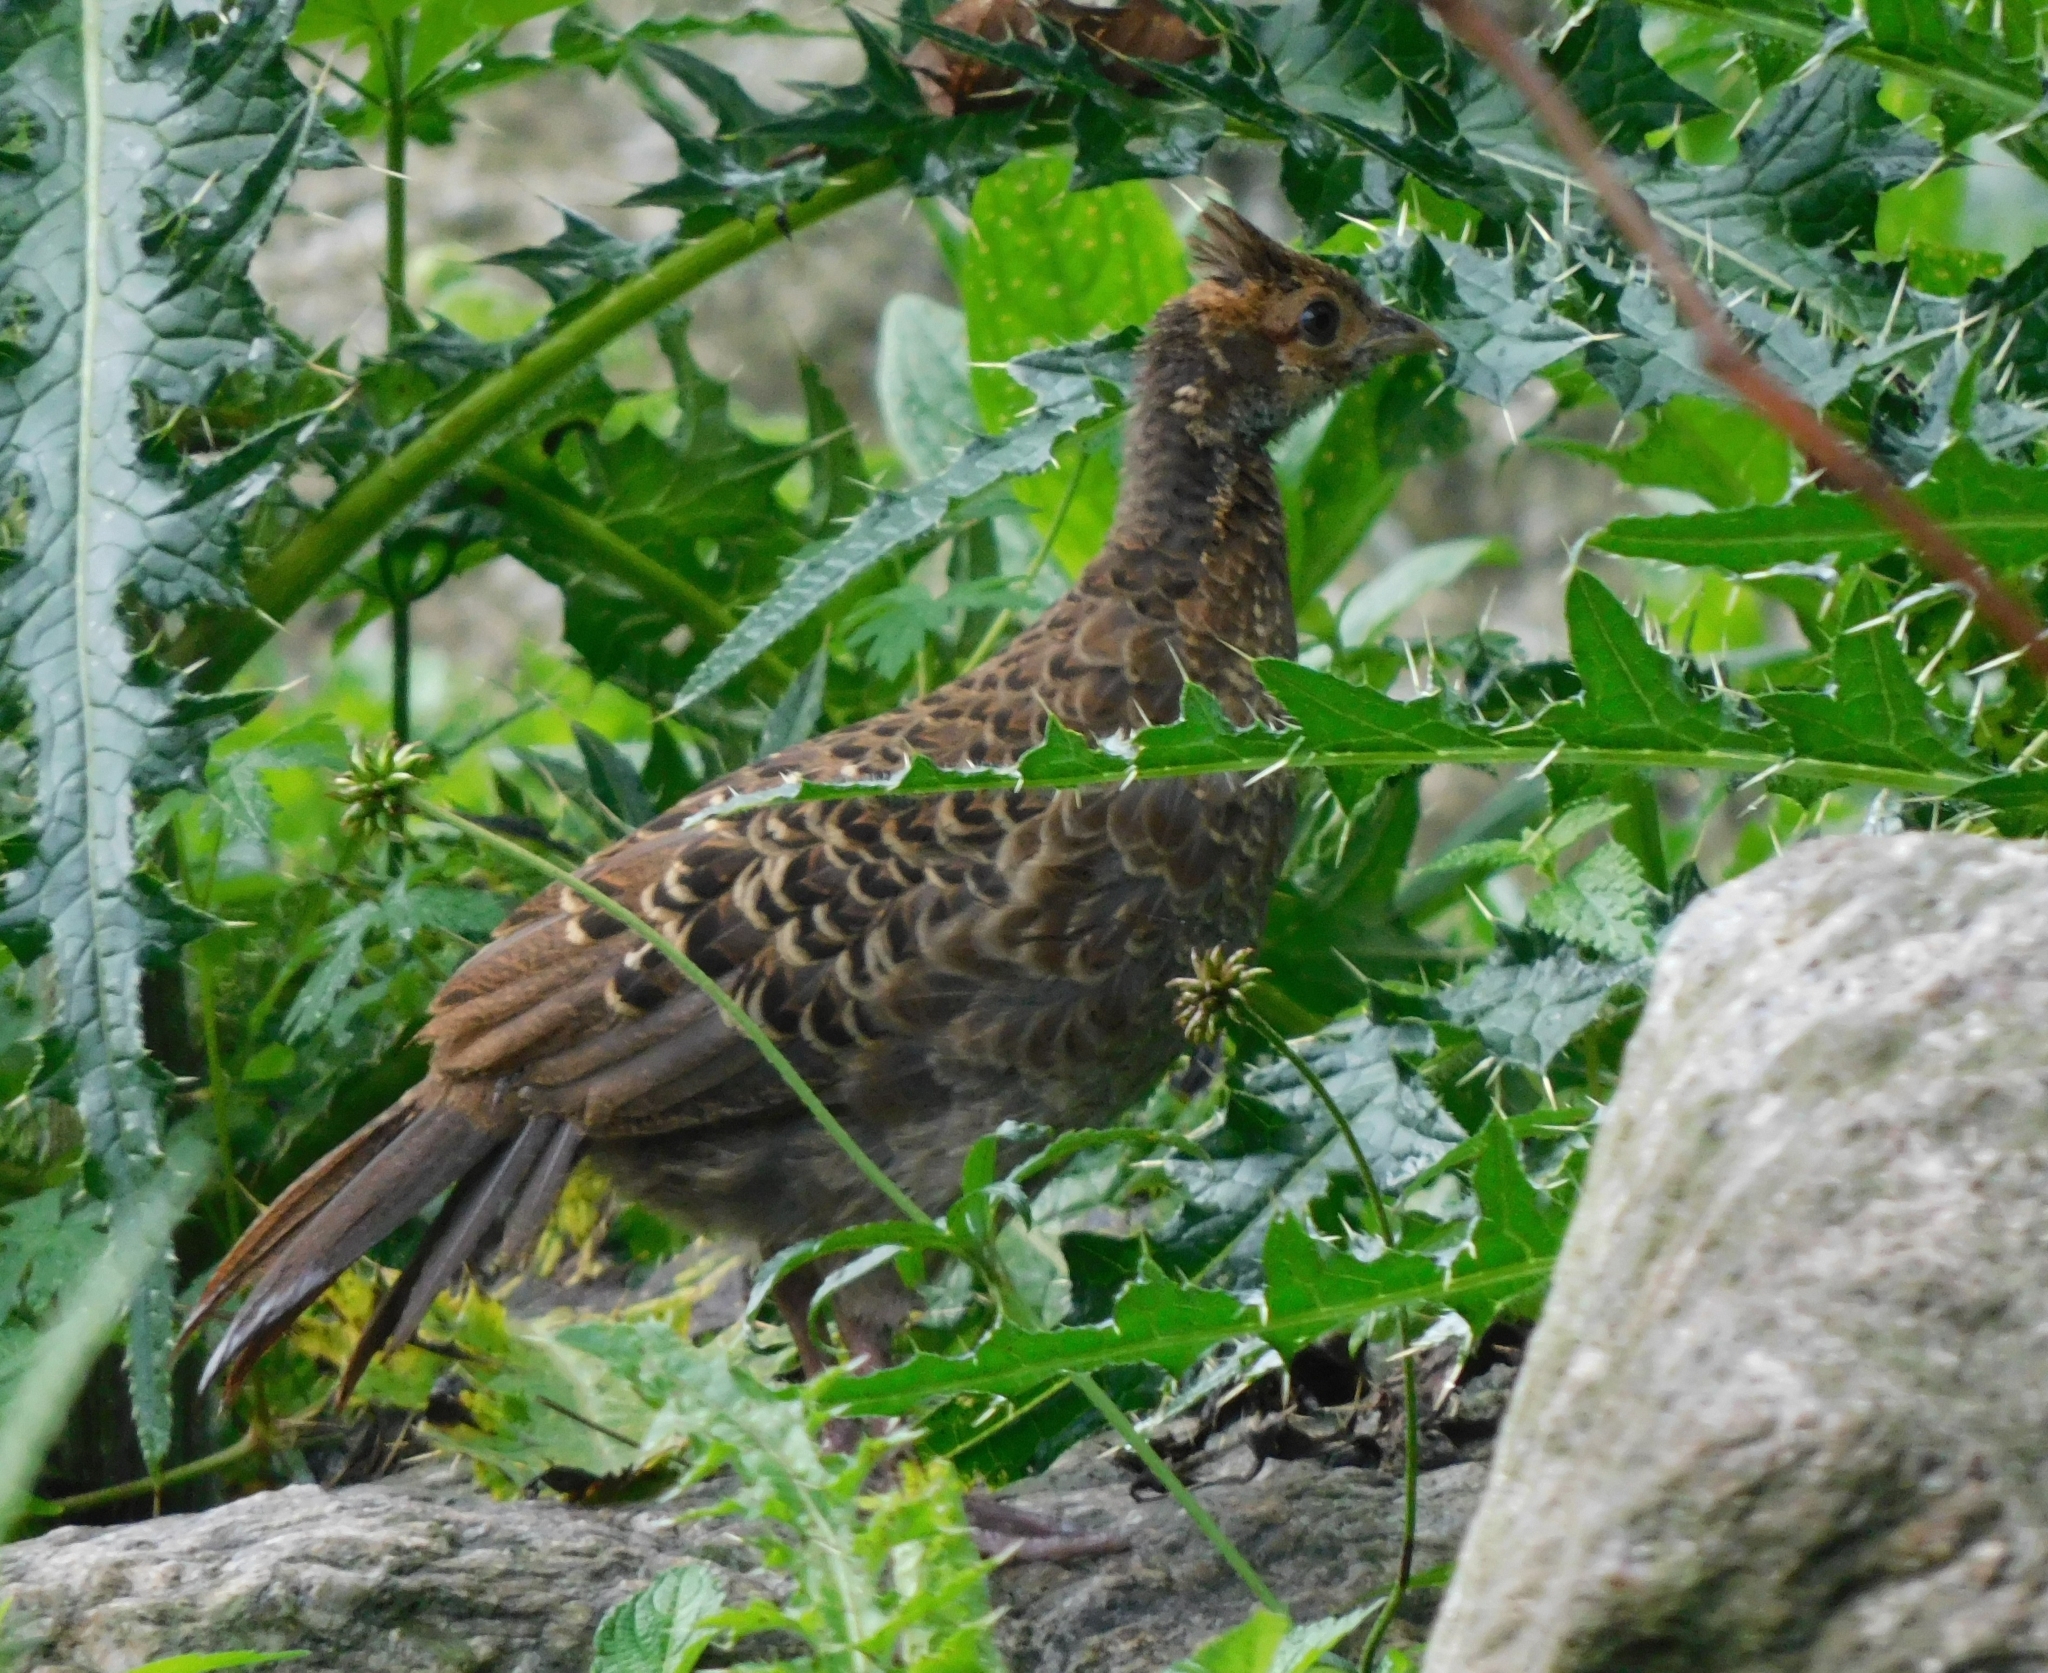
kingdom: Animalia
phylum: Chordata
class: Aves
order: Galliformes
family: Phasianidae
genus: Lophura
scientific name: Lophura leucomelanos
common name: Kalij pheasant
